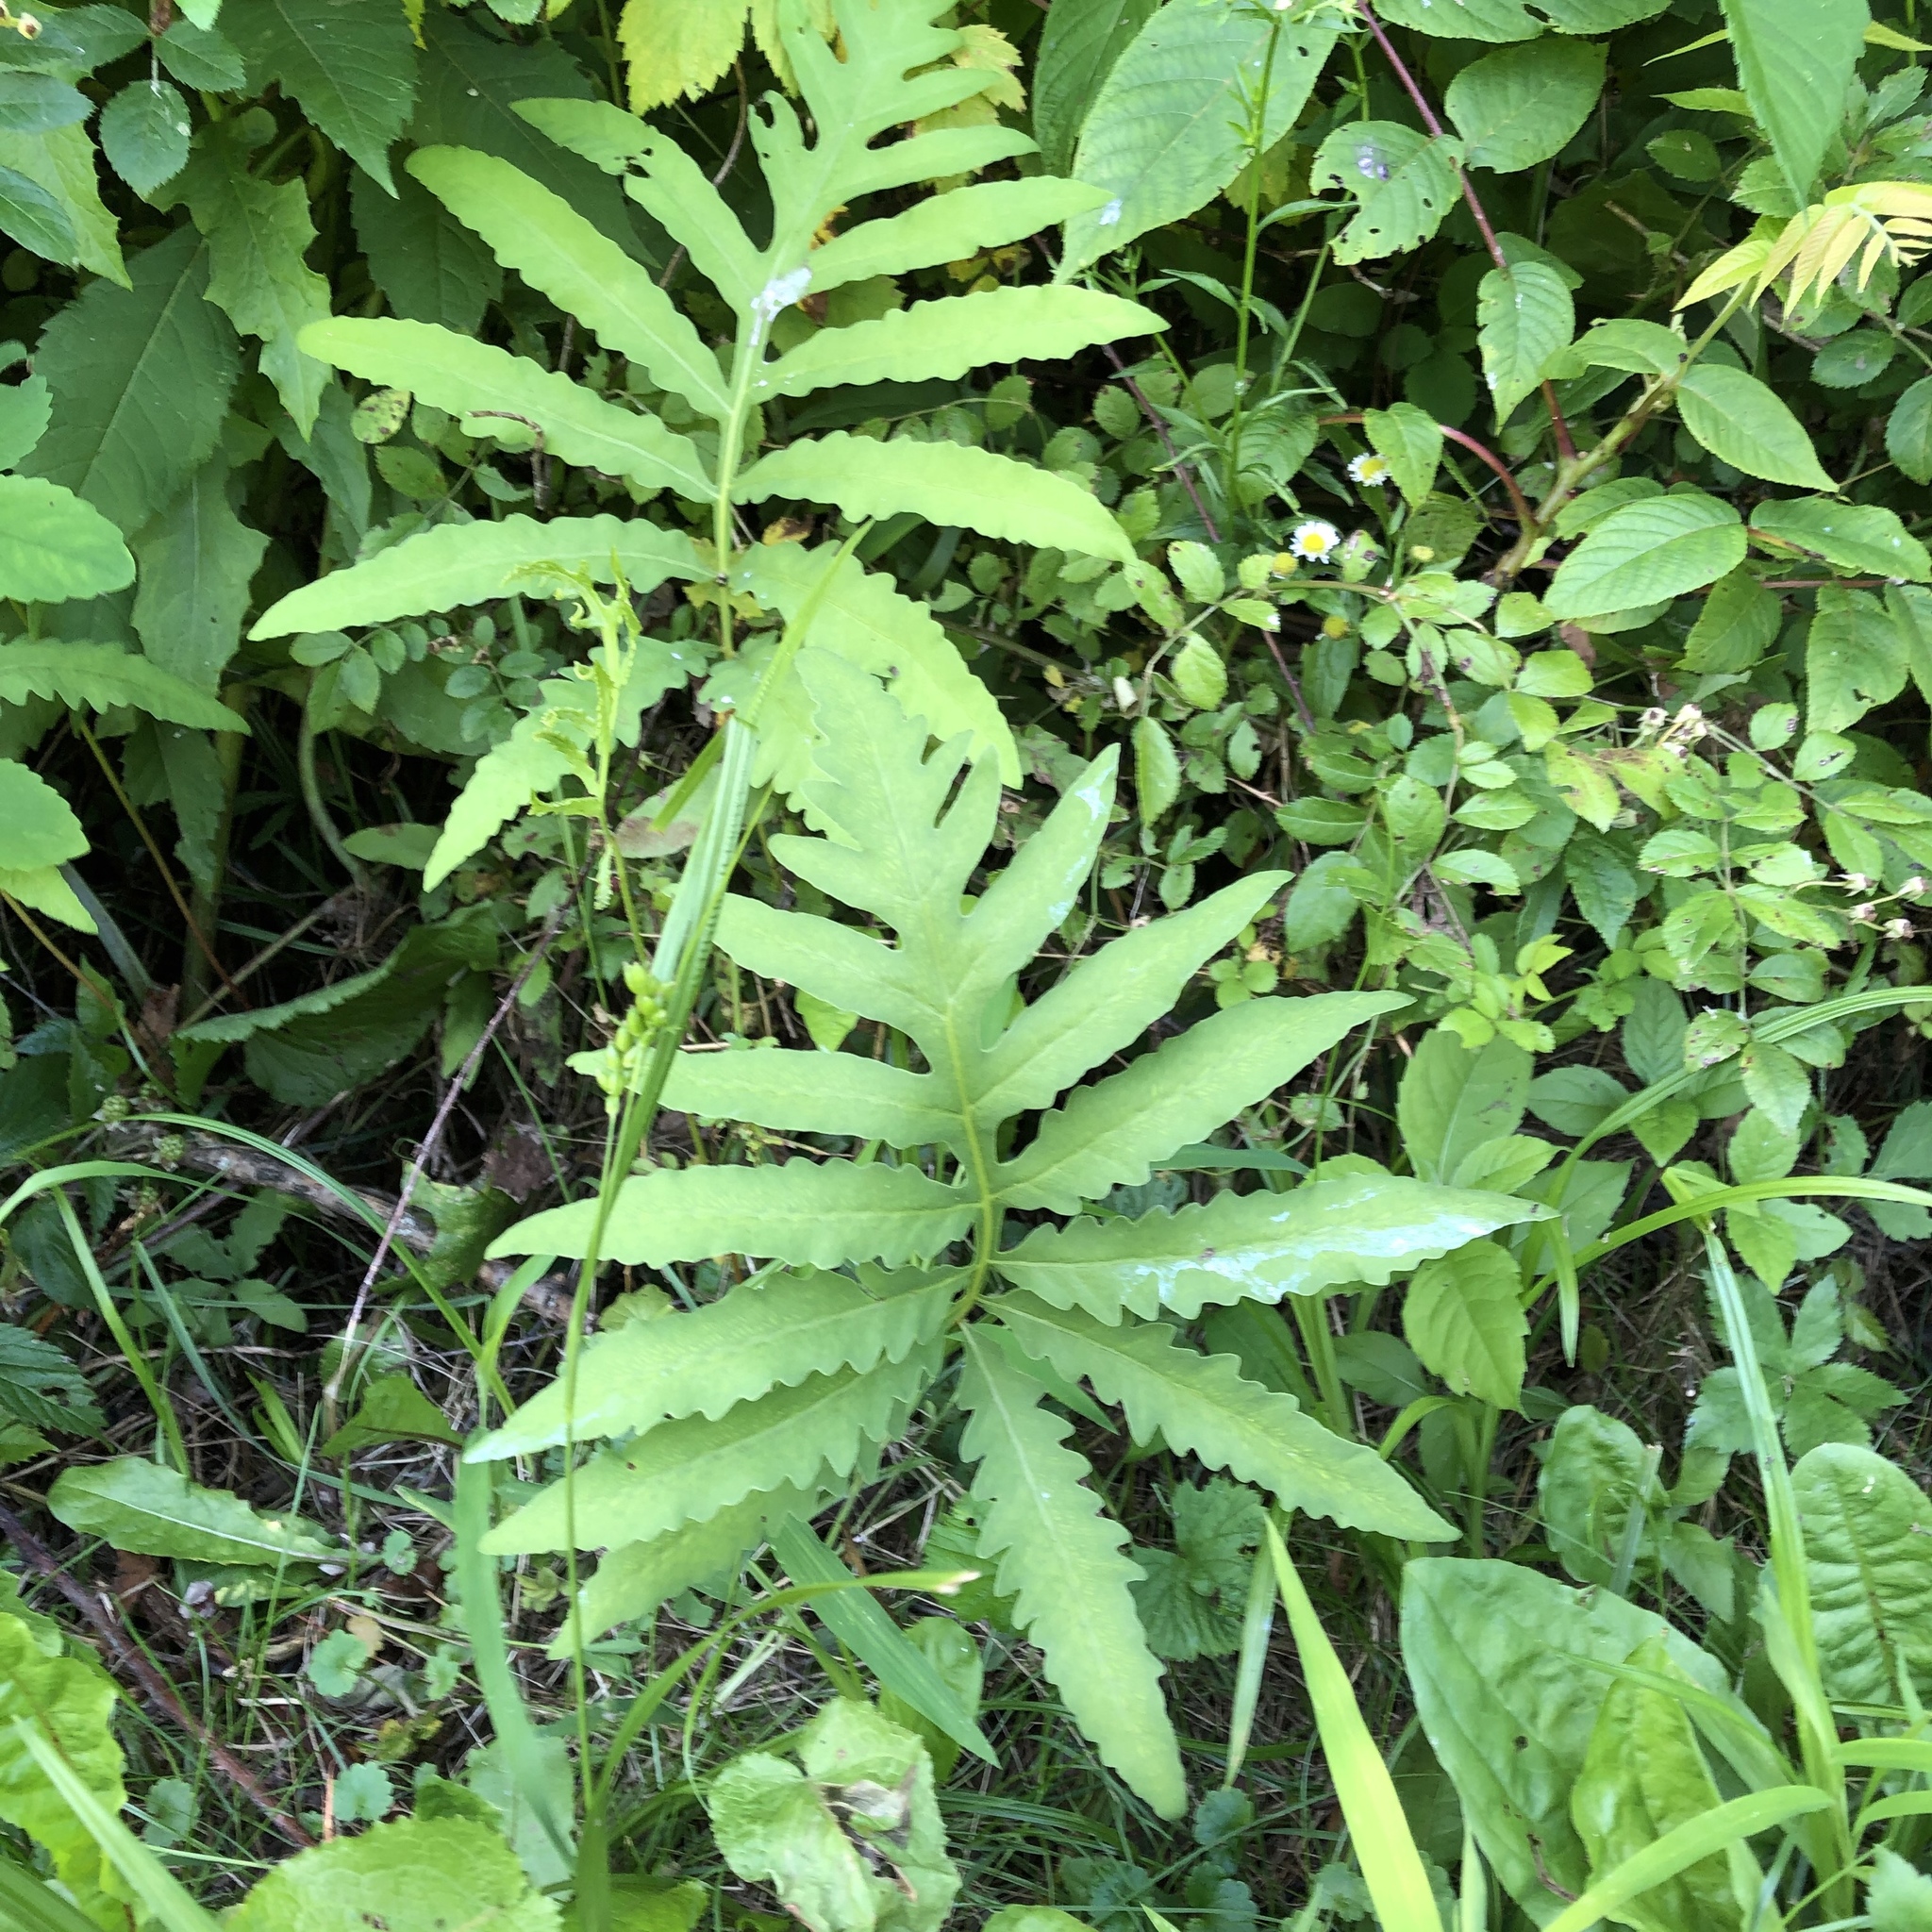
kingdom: Plantae
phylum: Tracheophyta
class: Polypodiopsida
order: Polypodiales
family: Onocleaceae
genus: Onoclea
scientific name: Onoclea sensibilis
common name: Sensitive fern
